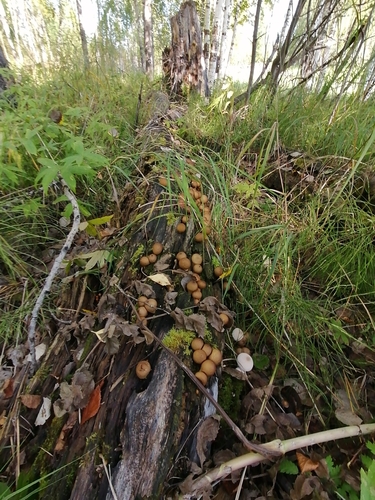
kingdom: Fungi
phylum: Basidiomycota
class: Agaricomycetes
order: Agaricales
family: Lycoperdaceae
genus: Apioperdon
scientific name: Apioperdon pyriforme
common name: Pear-shaped puffball
